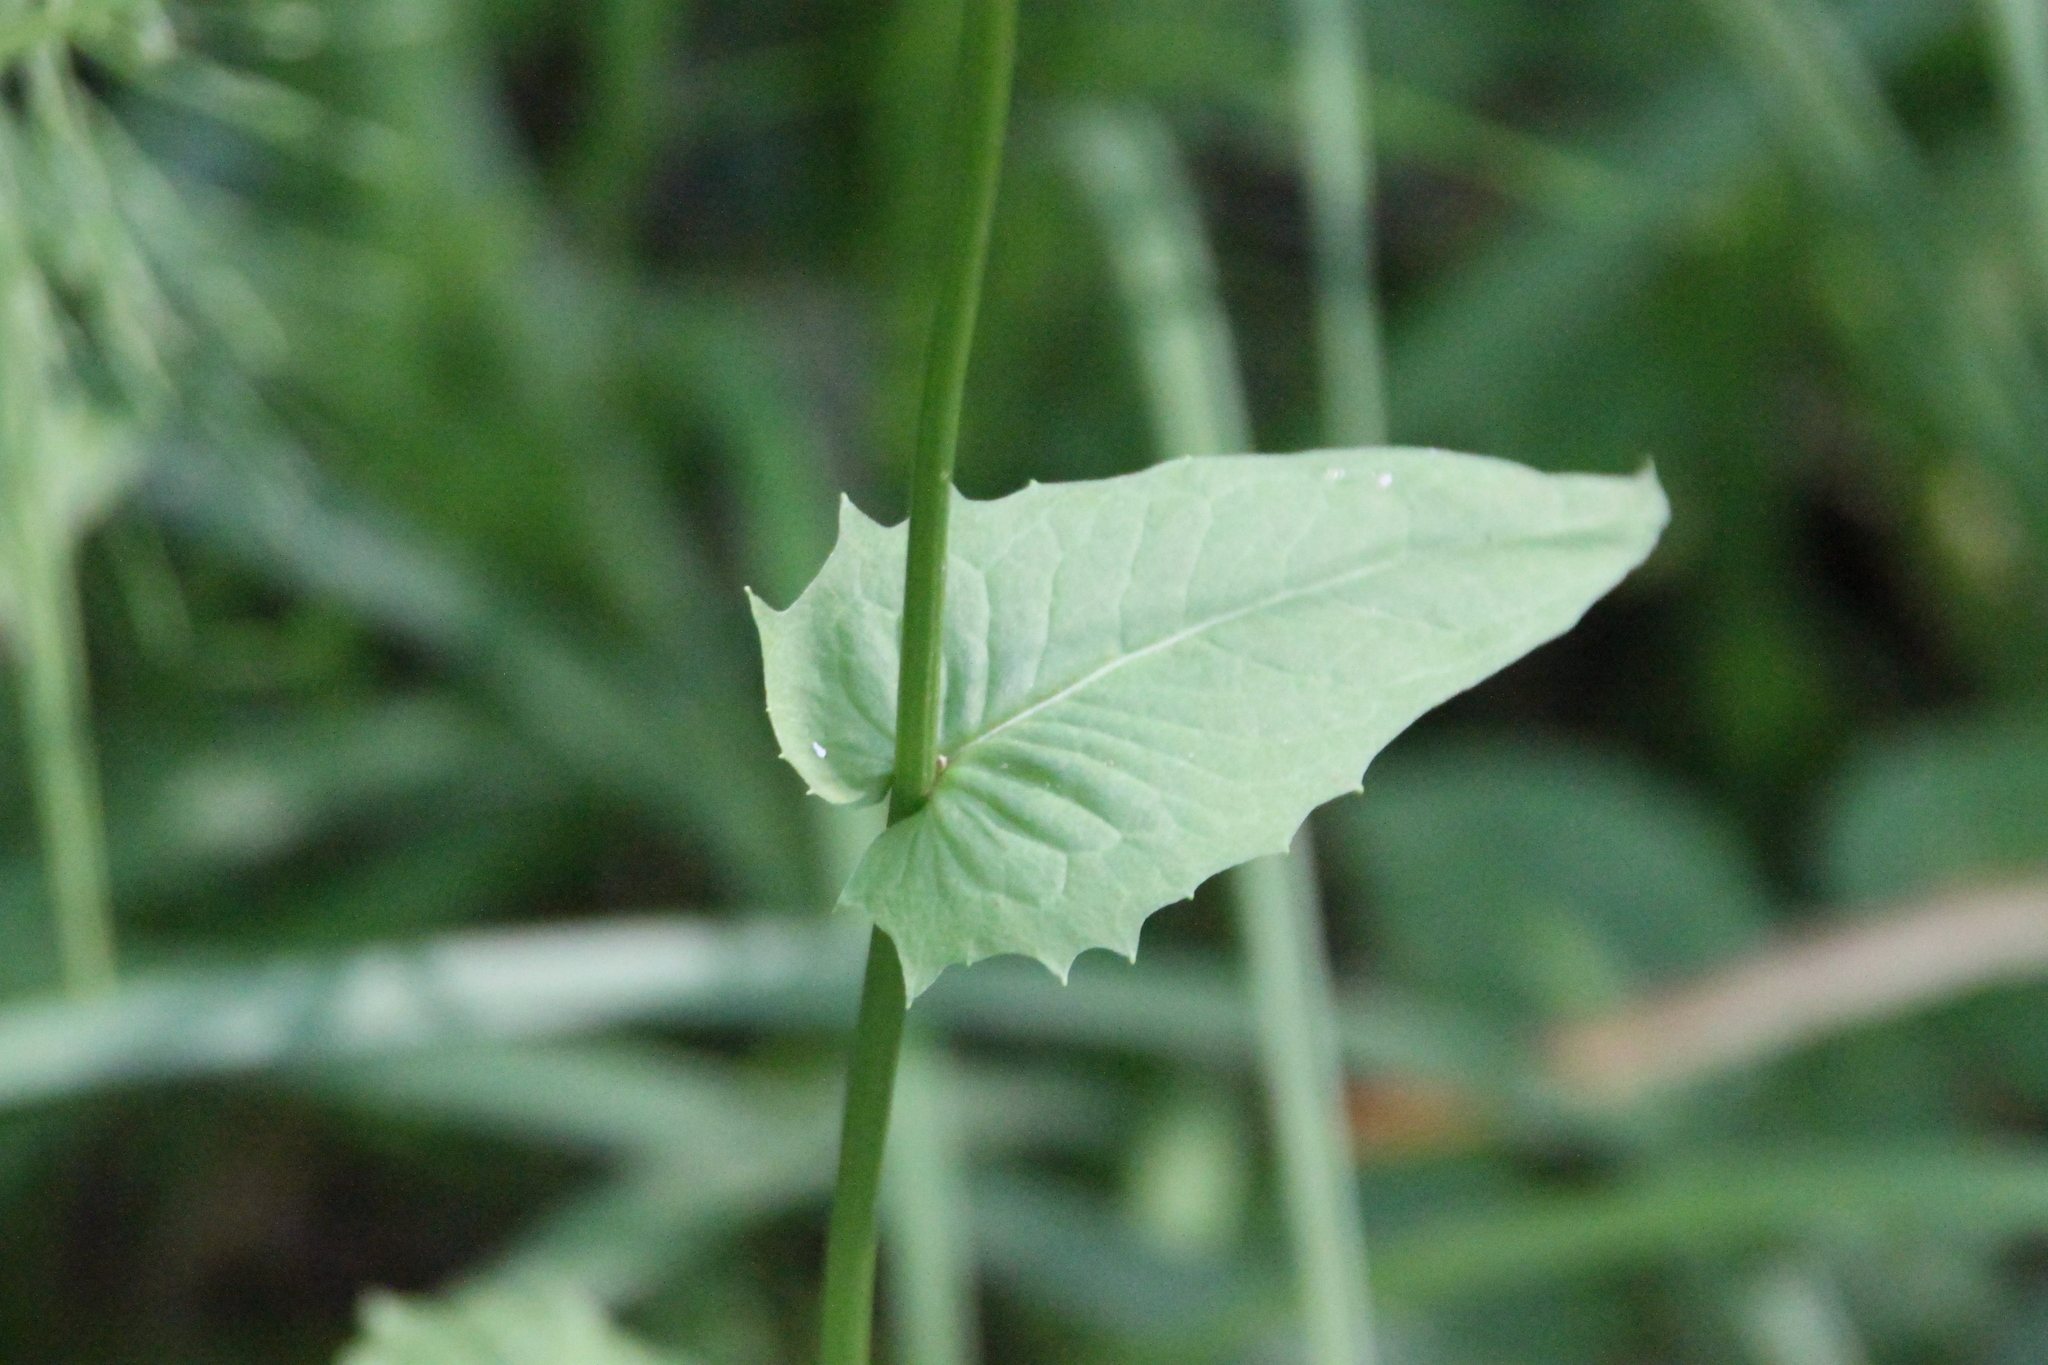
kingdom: Plantae
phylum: Tracheophyta
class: Magnoliopsida
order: Asterales
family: Asteraceae
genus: Crepis
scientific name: Crepis paludosa
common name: Marsh hawk's-beard
